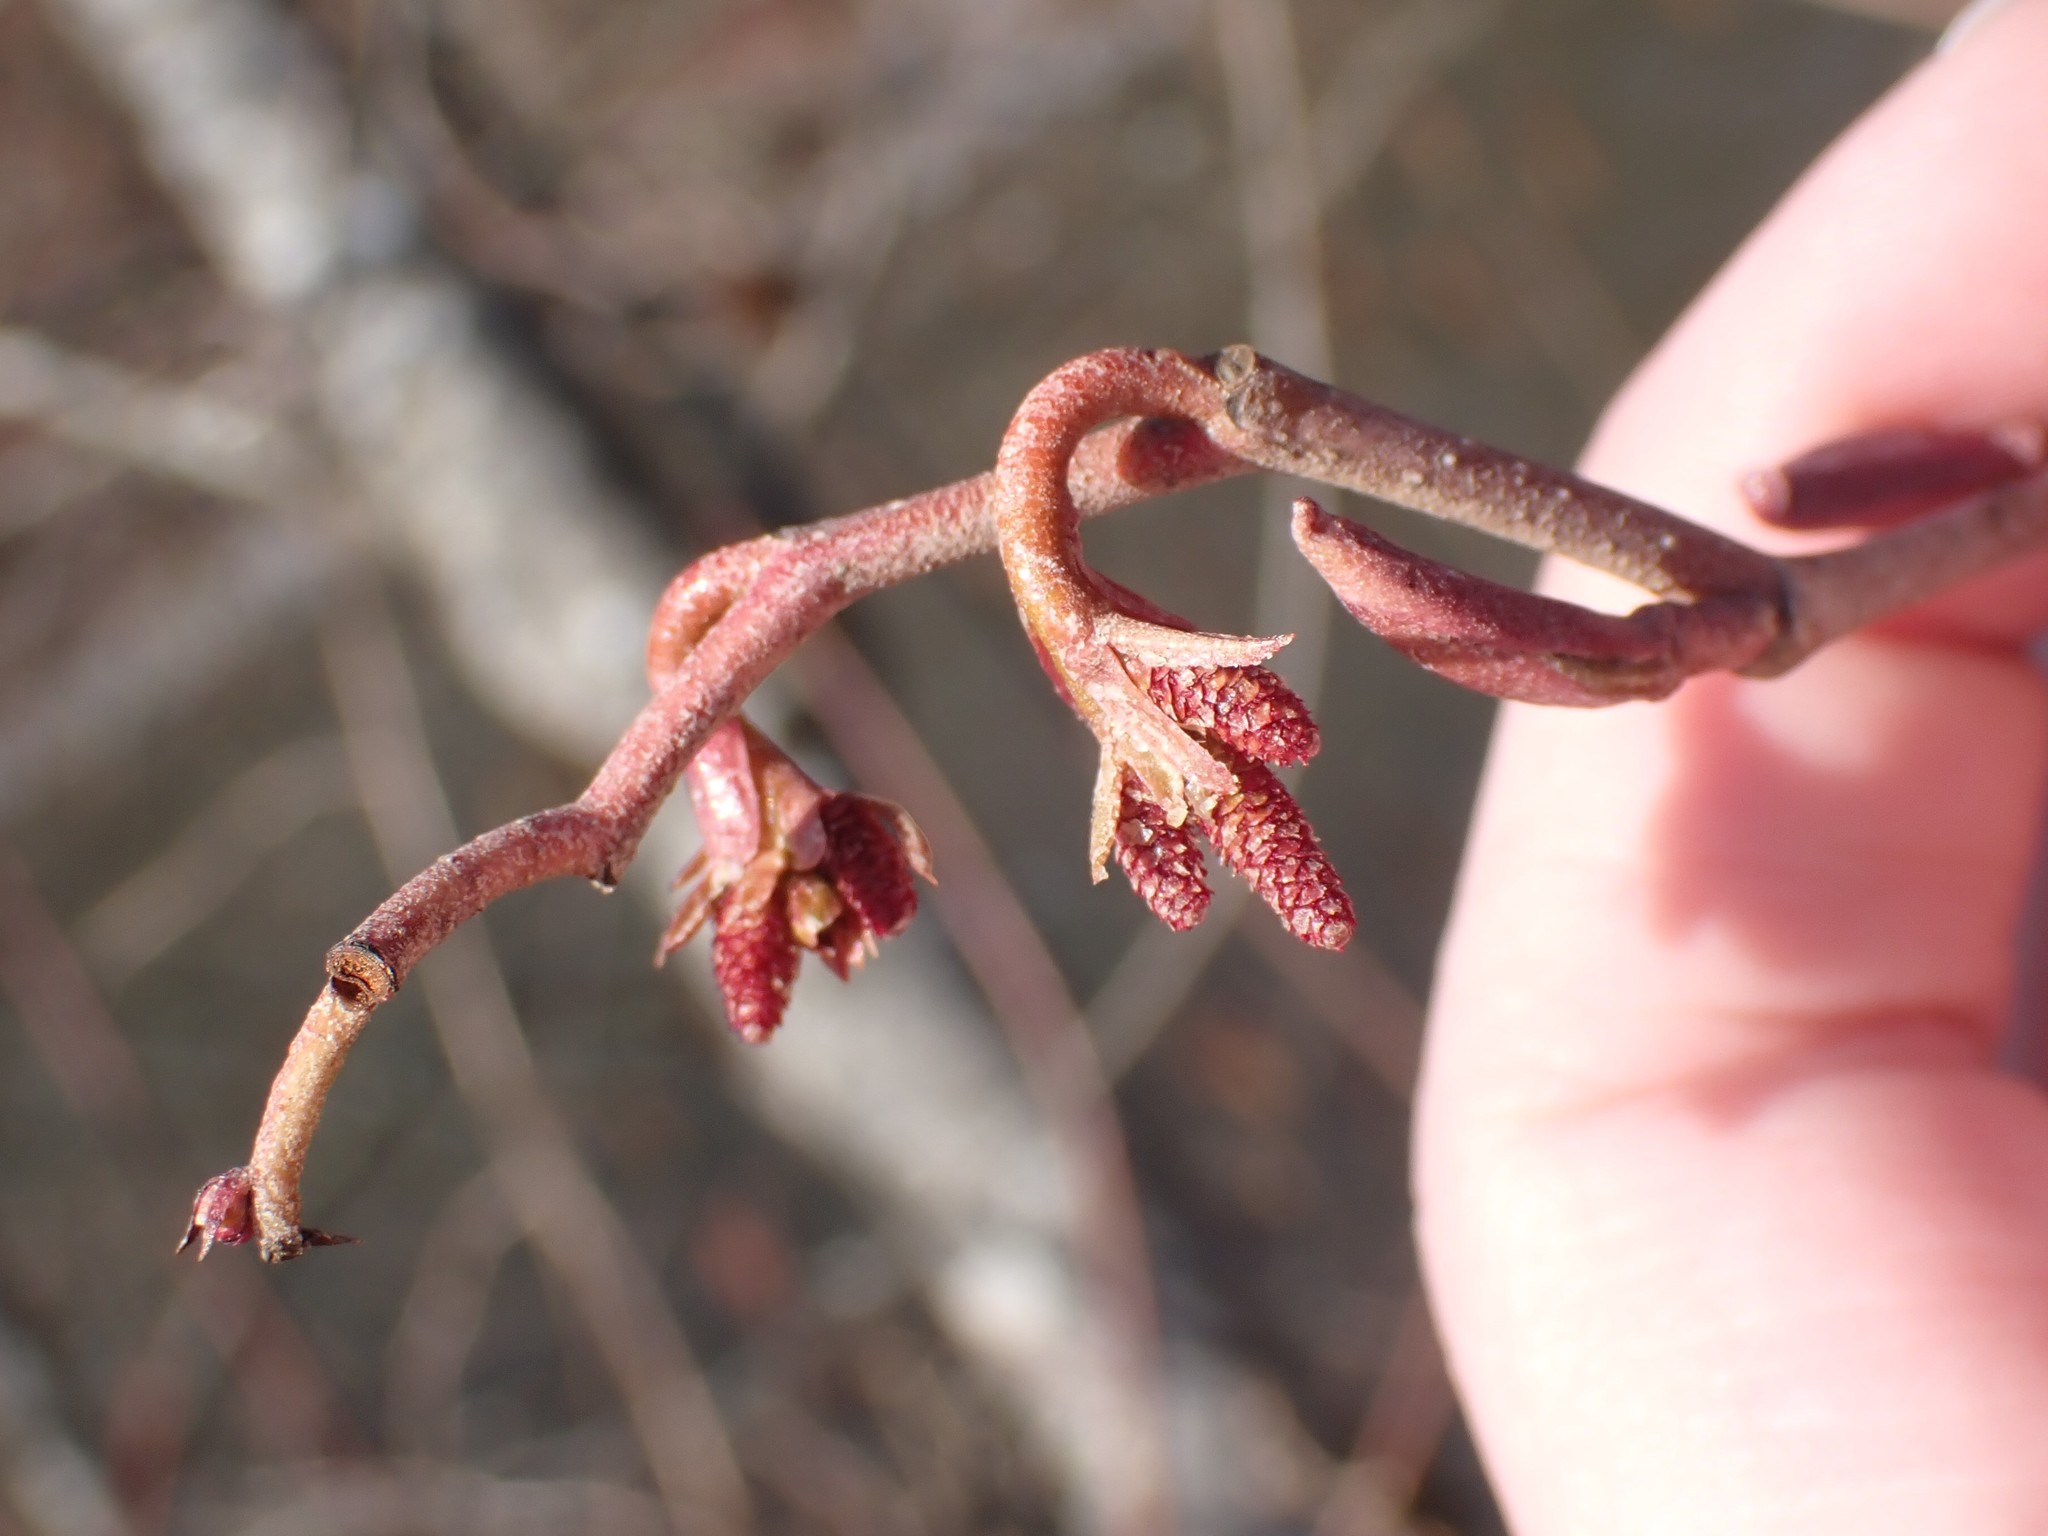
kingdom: Plantae
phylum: Tracheophyta
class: Magnoliopsida
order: Fagales
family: Betulaceae
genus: Alnus
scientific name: Alnus rubra
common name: Red alder
